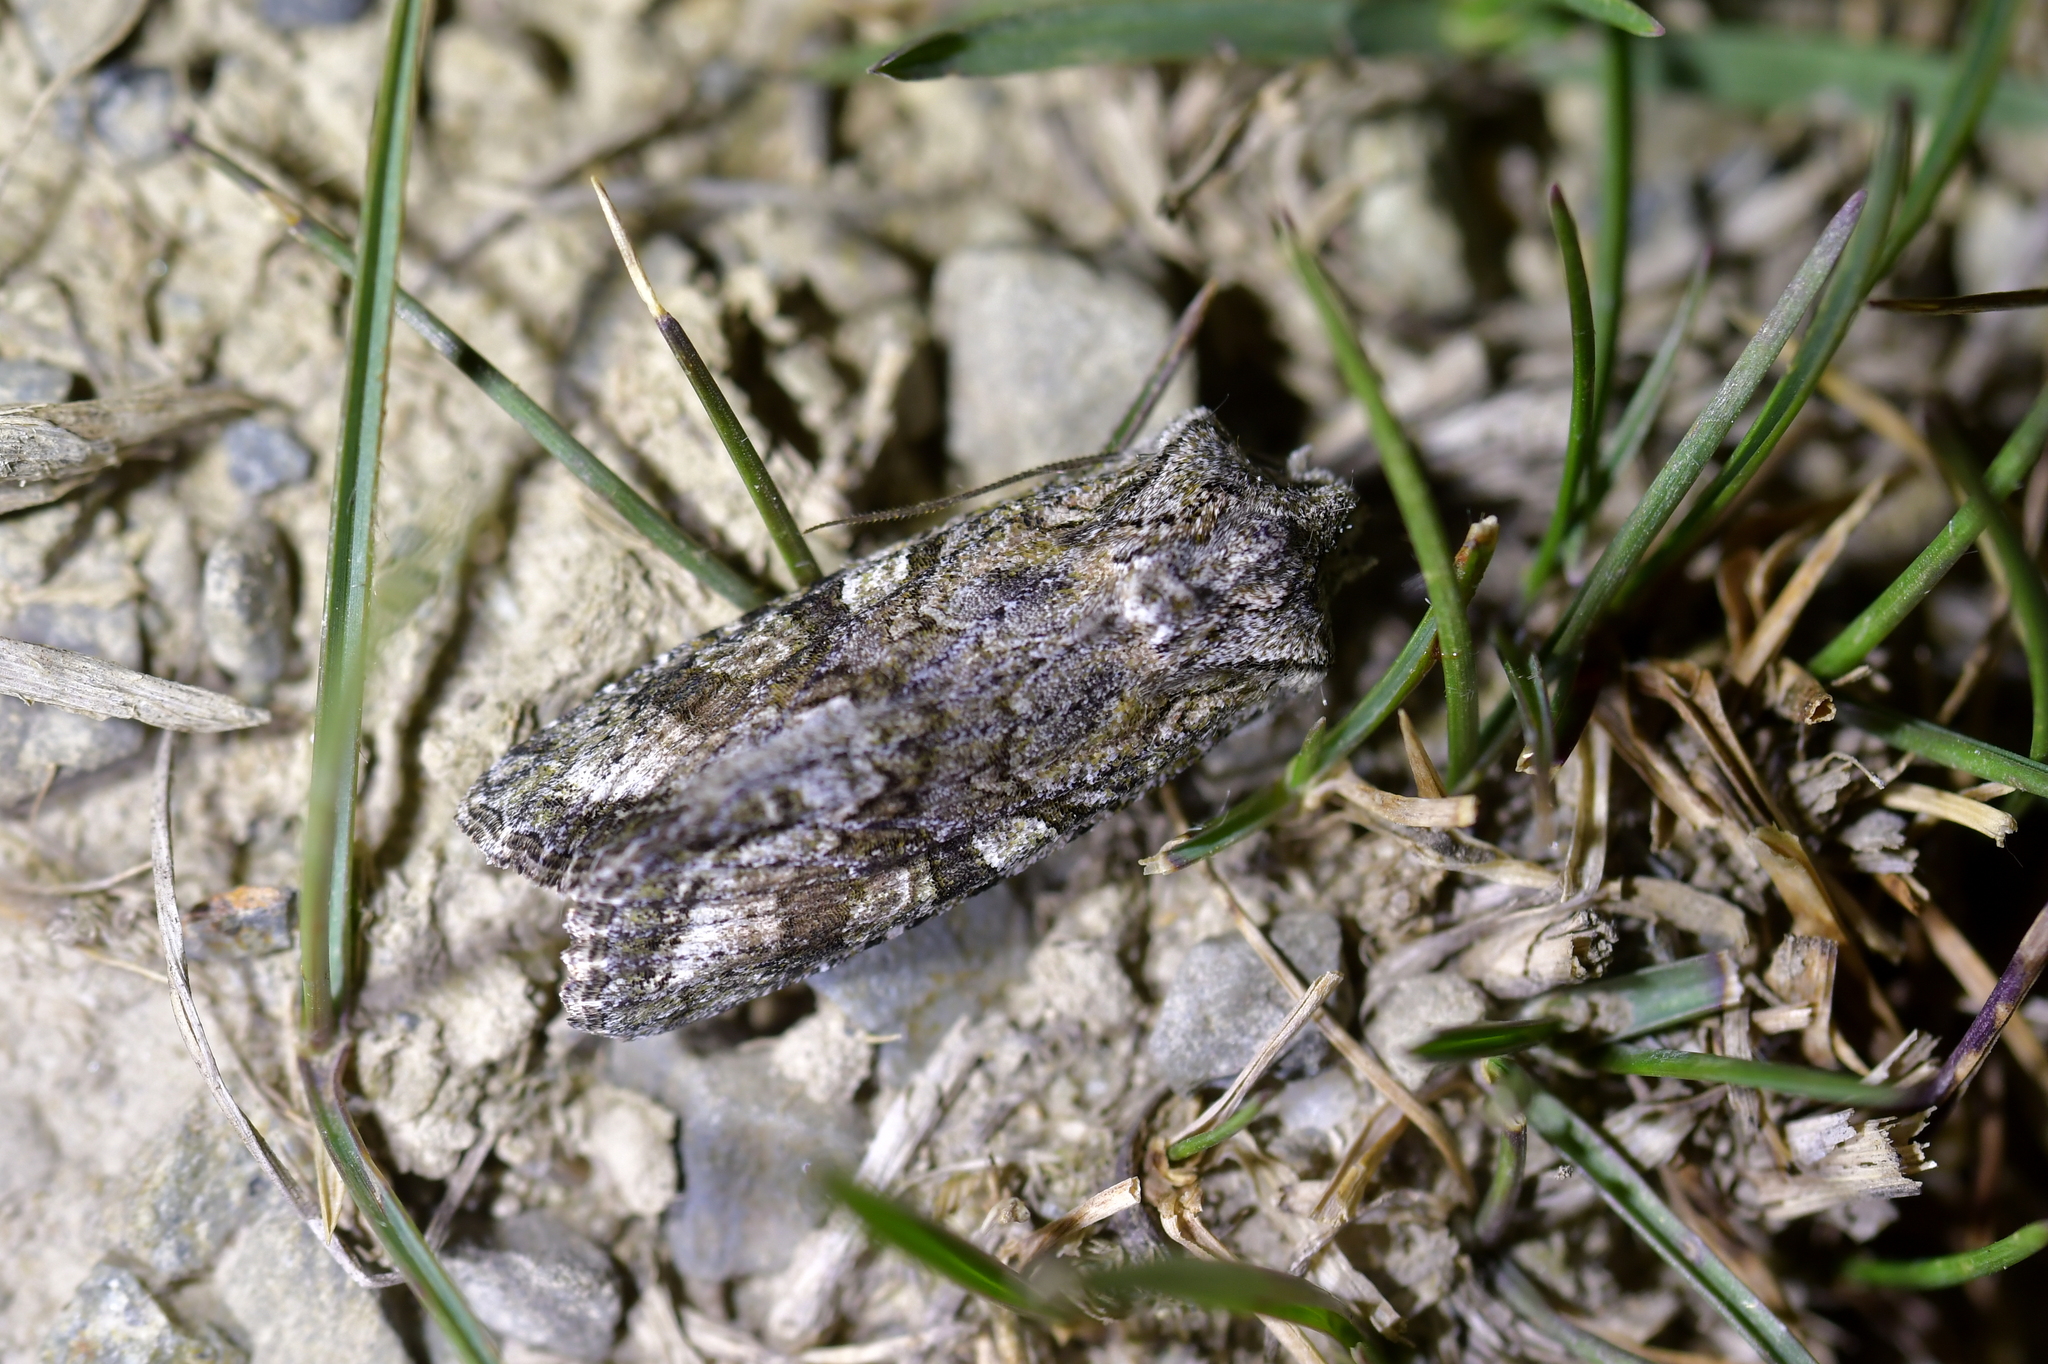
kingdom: Animalia
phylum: Arthropoda
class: Insecta
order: Lepidoptera
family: Noctuidae
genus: Ichneutica
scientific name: Ichneutica mutans
